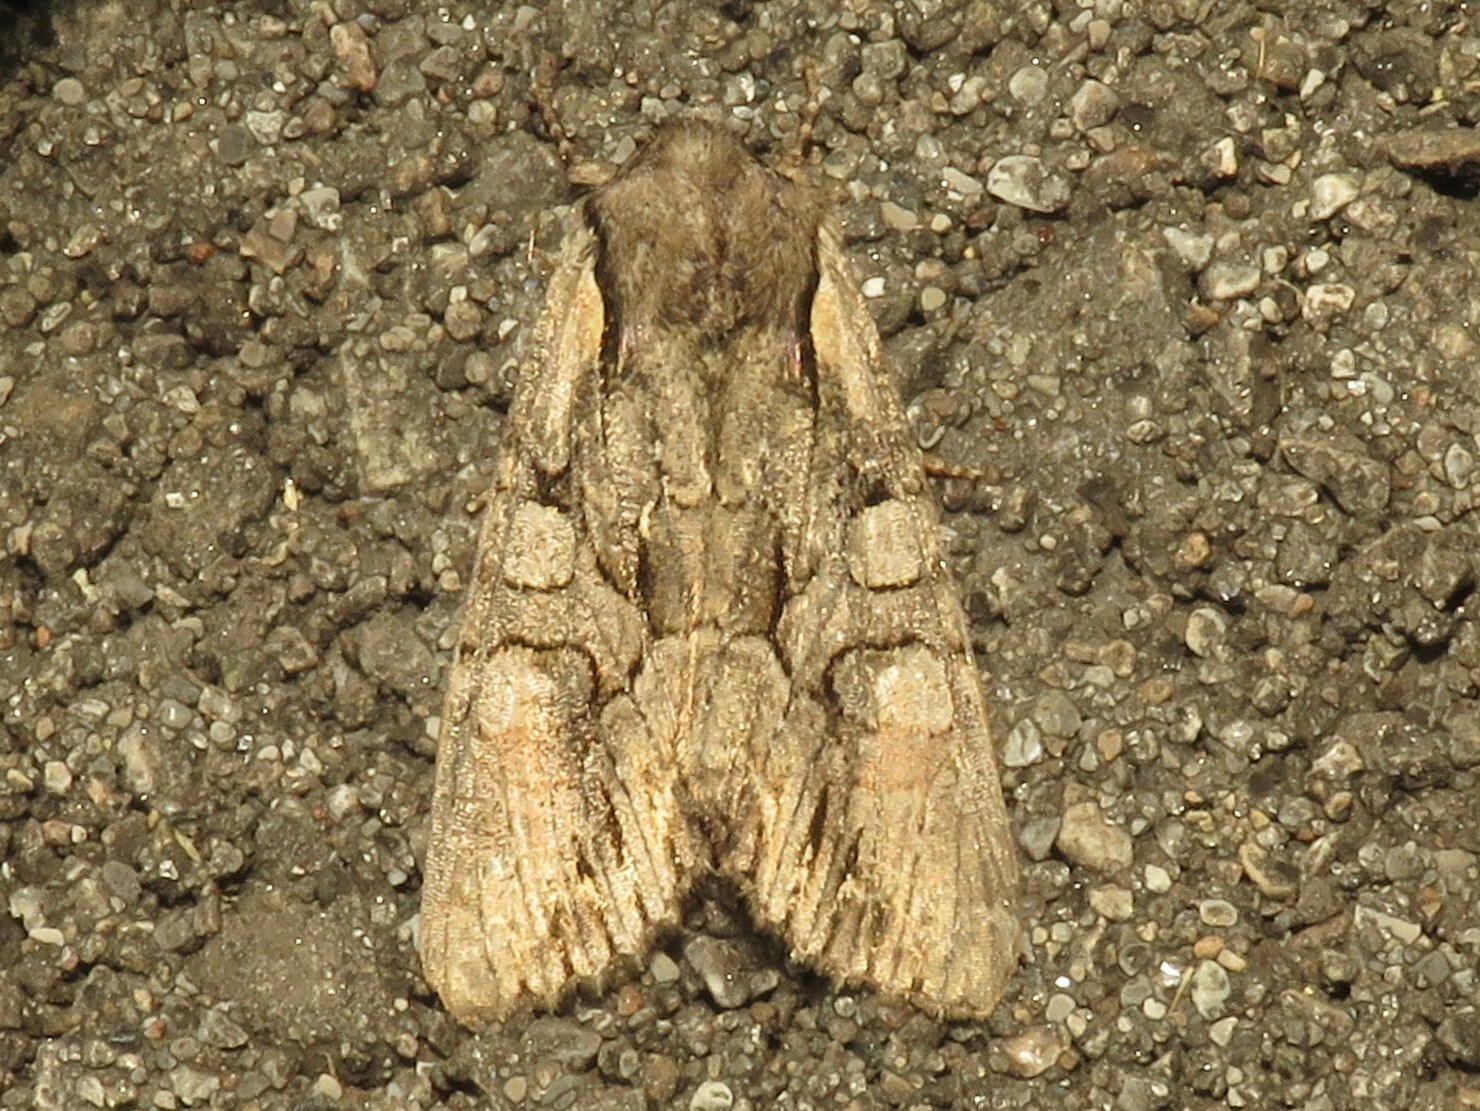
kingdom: Animalia
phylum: Arthropoda
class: Insecta
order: Lepidoptera
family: Noctuidae
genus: Lacanobia
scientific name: Lacanobia subjuncta
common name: Speckled cutworm moth
